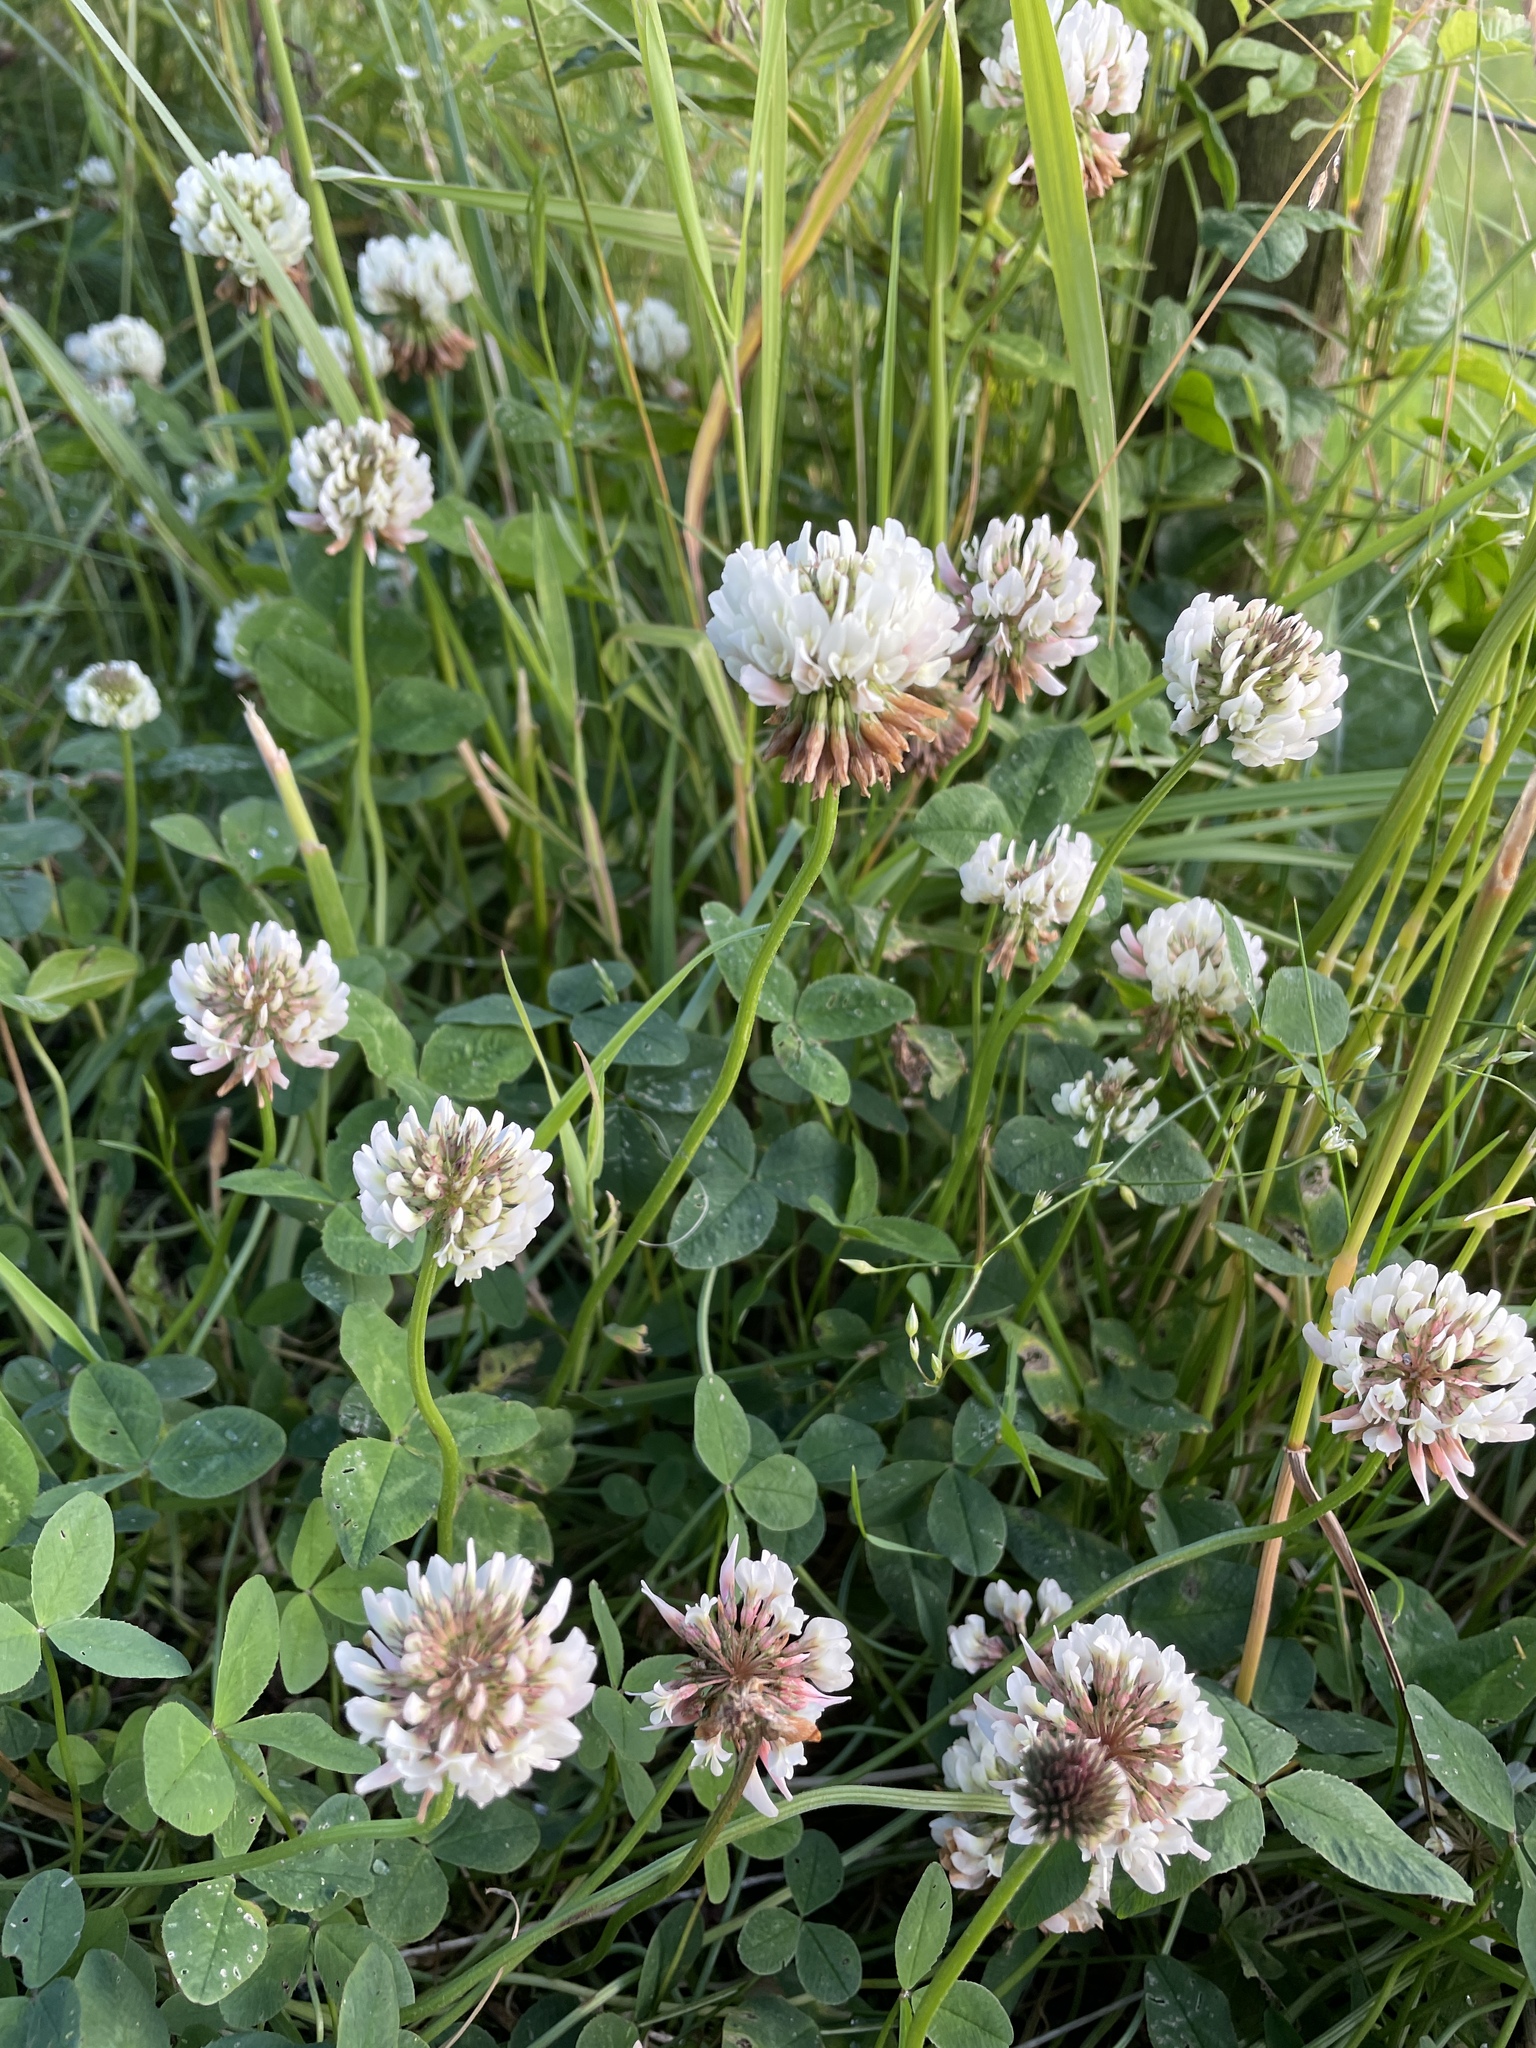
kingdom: Plantae
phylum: Tracheophyta
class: Magnoliopsida
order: Fabales
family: Fabaceae
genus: Trifolium
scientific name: Trifolium repens
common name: White clover
